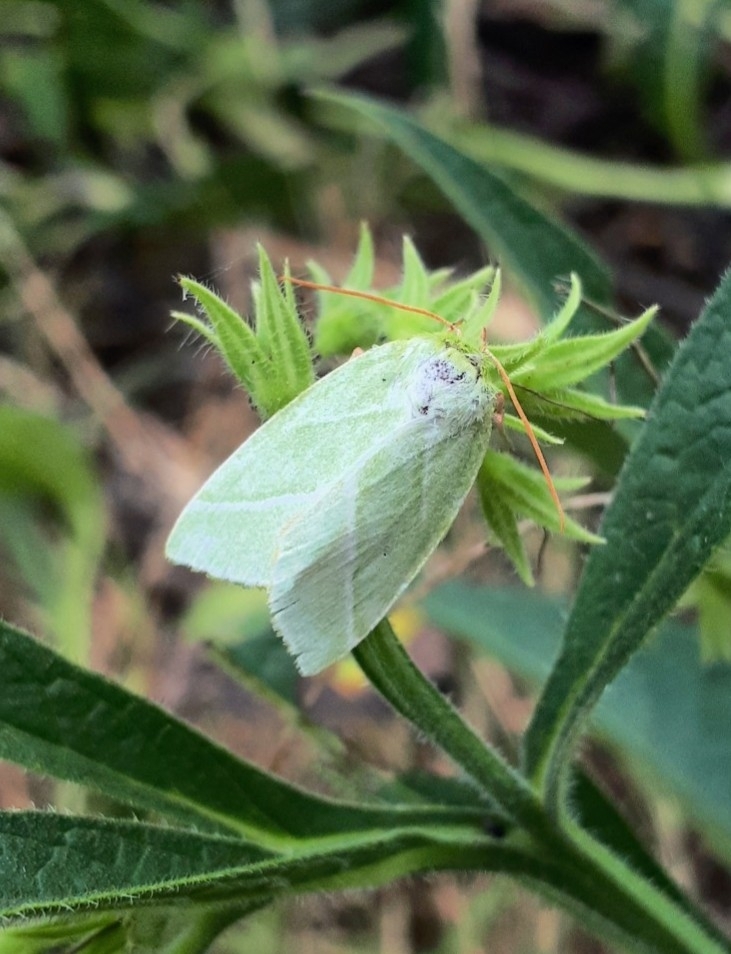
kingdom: Animalia
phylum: Arthropoda
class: Insecta
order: Lepidoptera
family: Nolidae
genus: Pseudoips
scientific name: Pseudoips prasinana
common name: Green silver-lines
